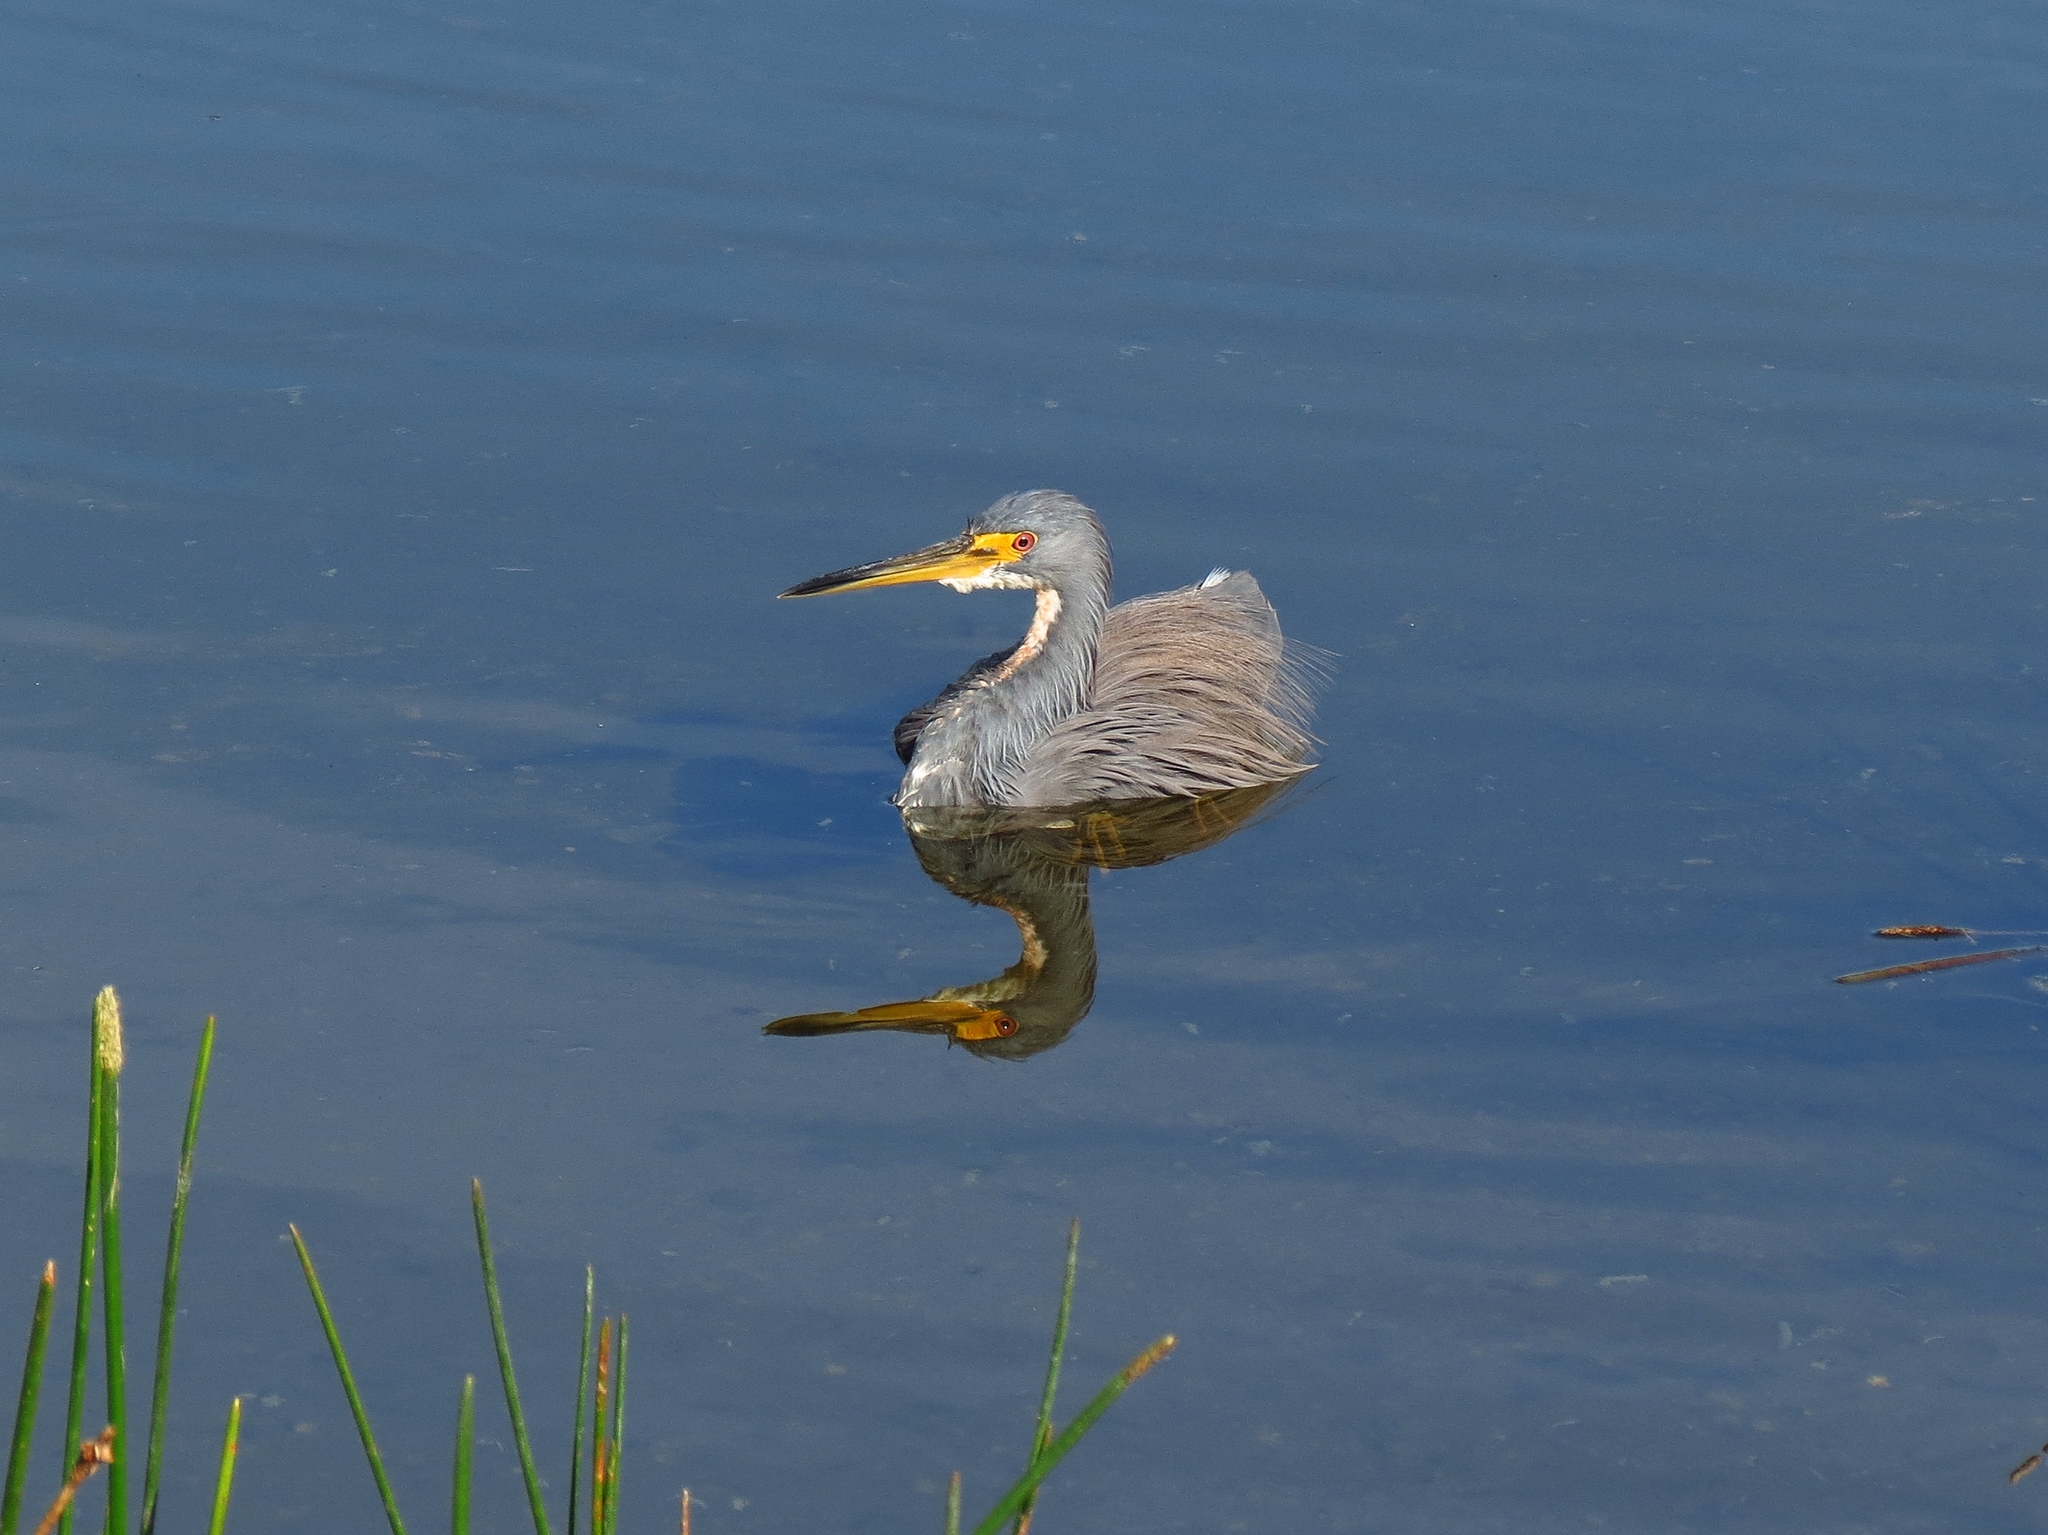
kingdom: Animalia
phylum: Chordata
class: Aves
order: Pelecaniformes
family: Ardeidae
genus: Egretta
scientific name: Egretta tricolor
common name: Tricolored heron
